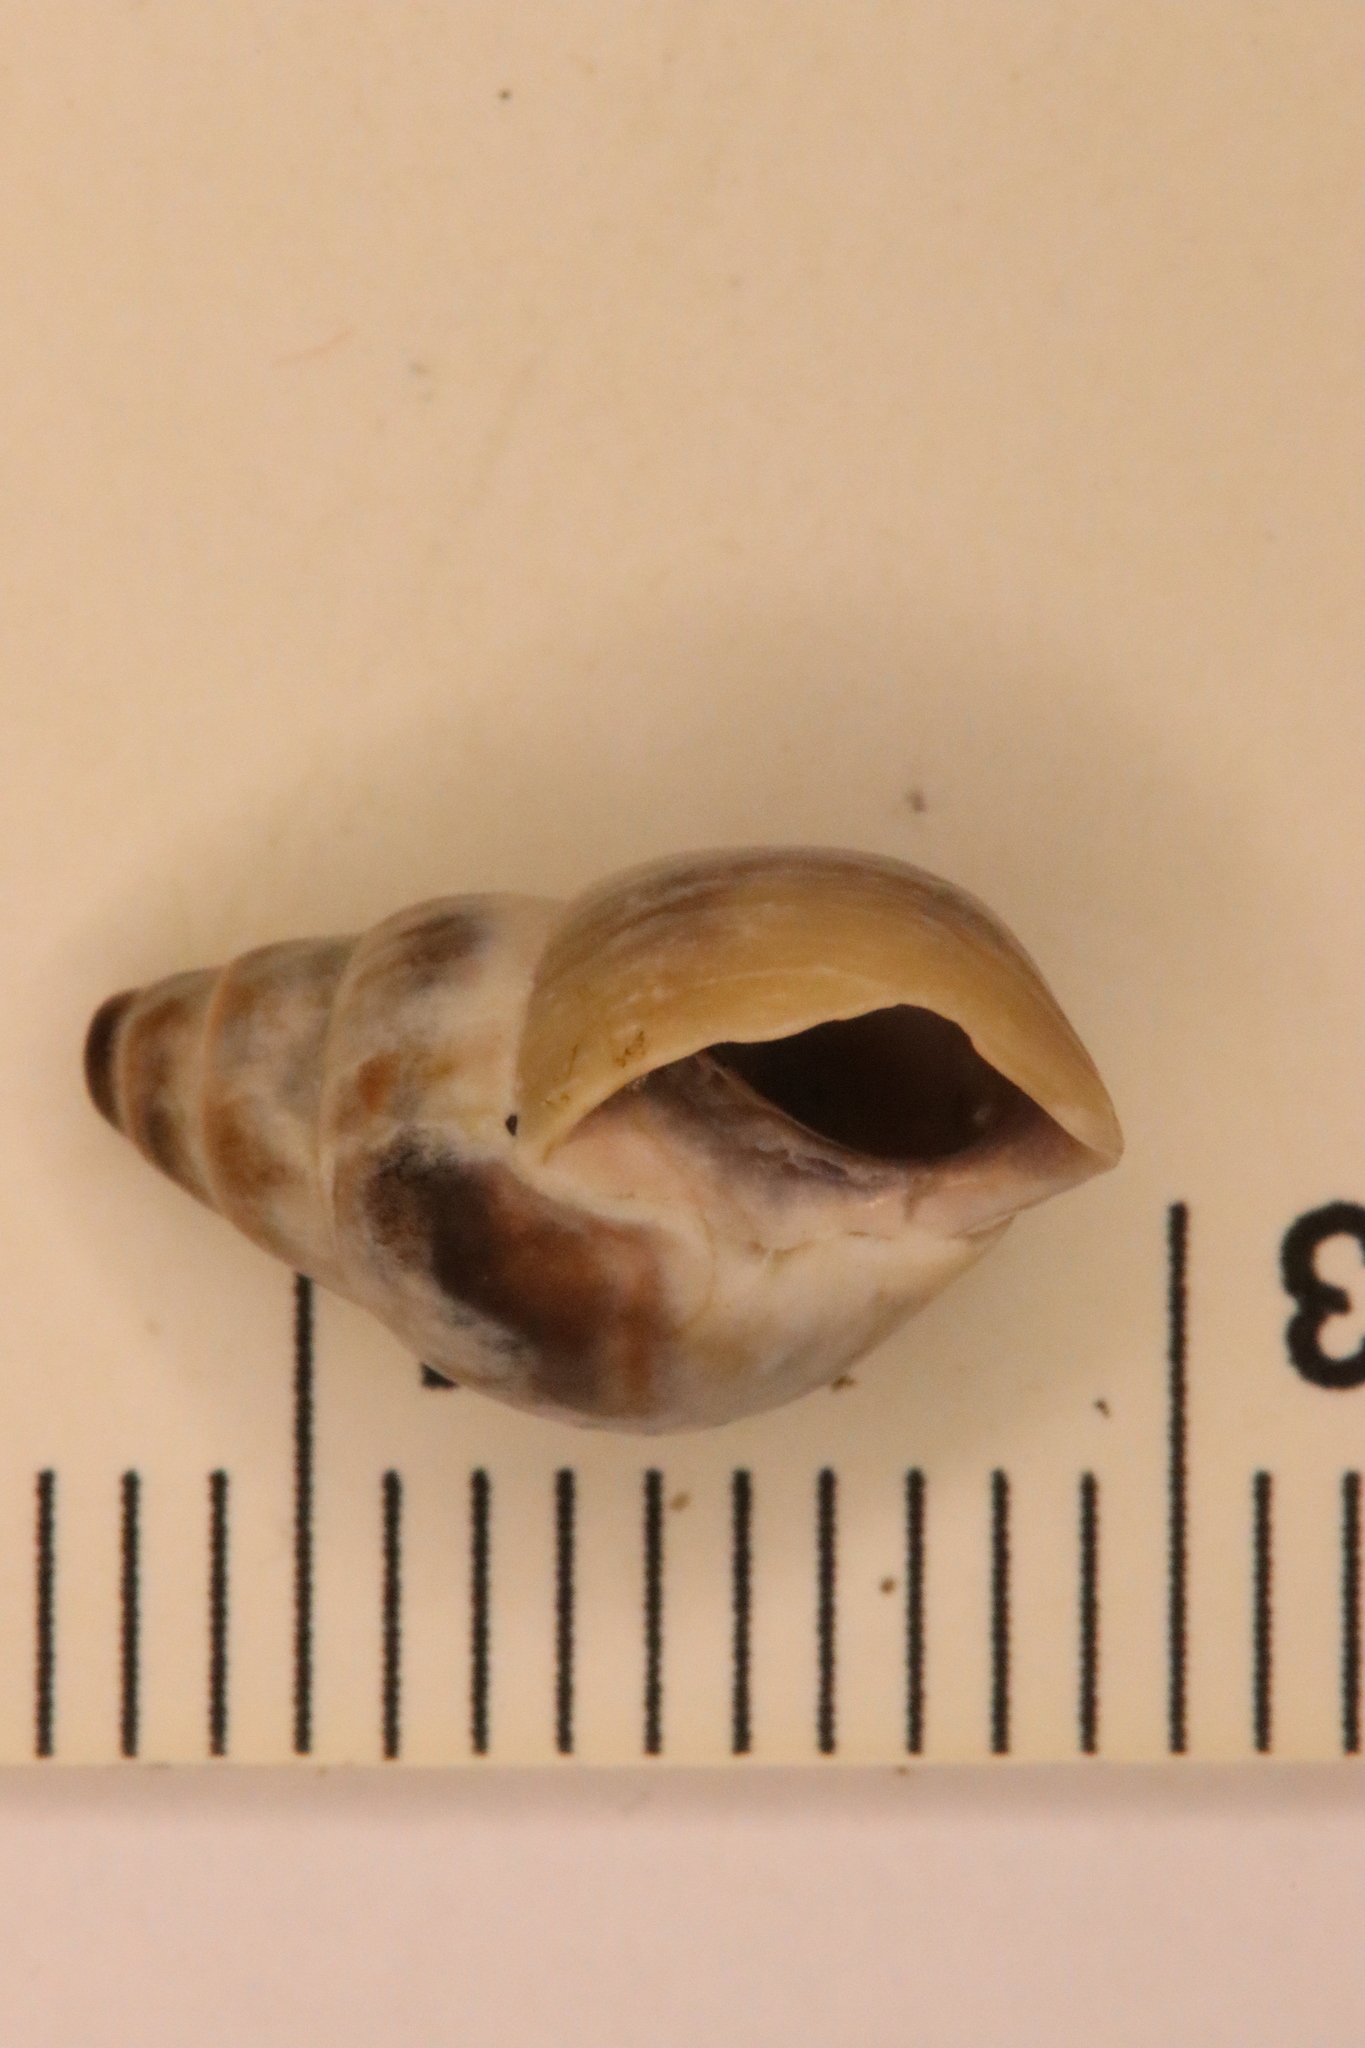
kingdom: Animalia
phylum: Mollusca
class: Gastropoda
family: Pleuroceridae
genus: Elimia
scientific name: Elimia livescens
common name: Liver elimia
